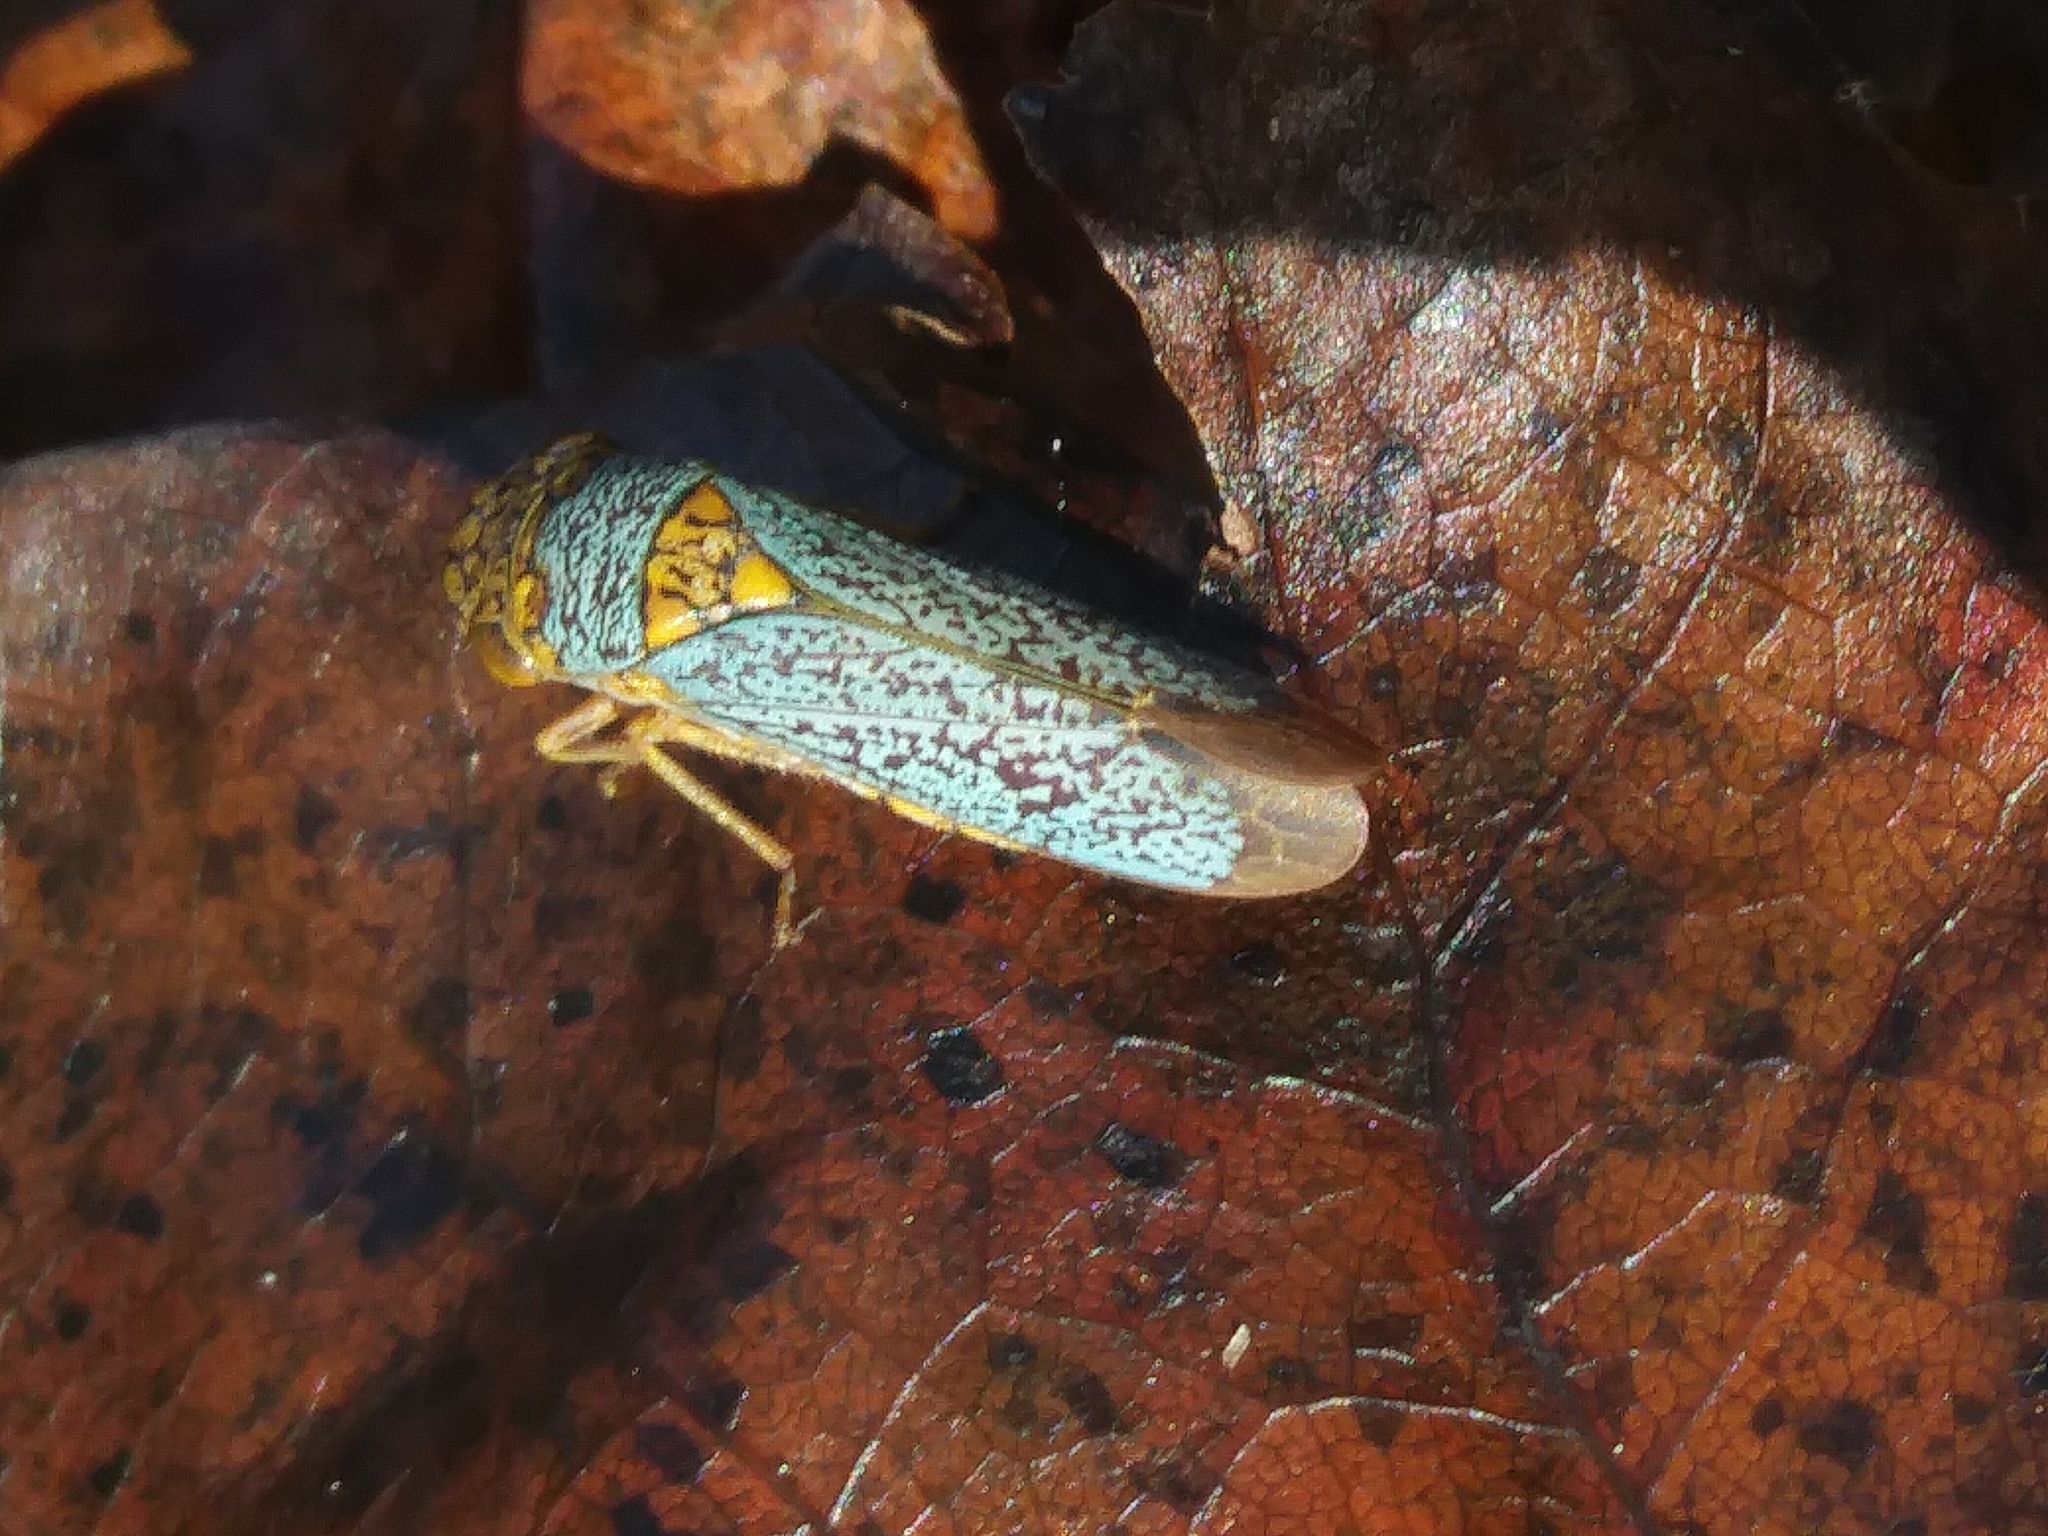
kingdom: Animalia
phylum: Arthropoda
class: Insecta
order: Hemiptera
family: Cicadellidae
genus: Oncometopia
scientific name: Oncometopia orbona
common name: Broad-headed sharpshooter
